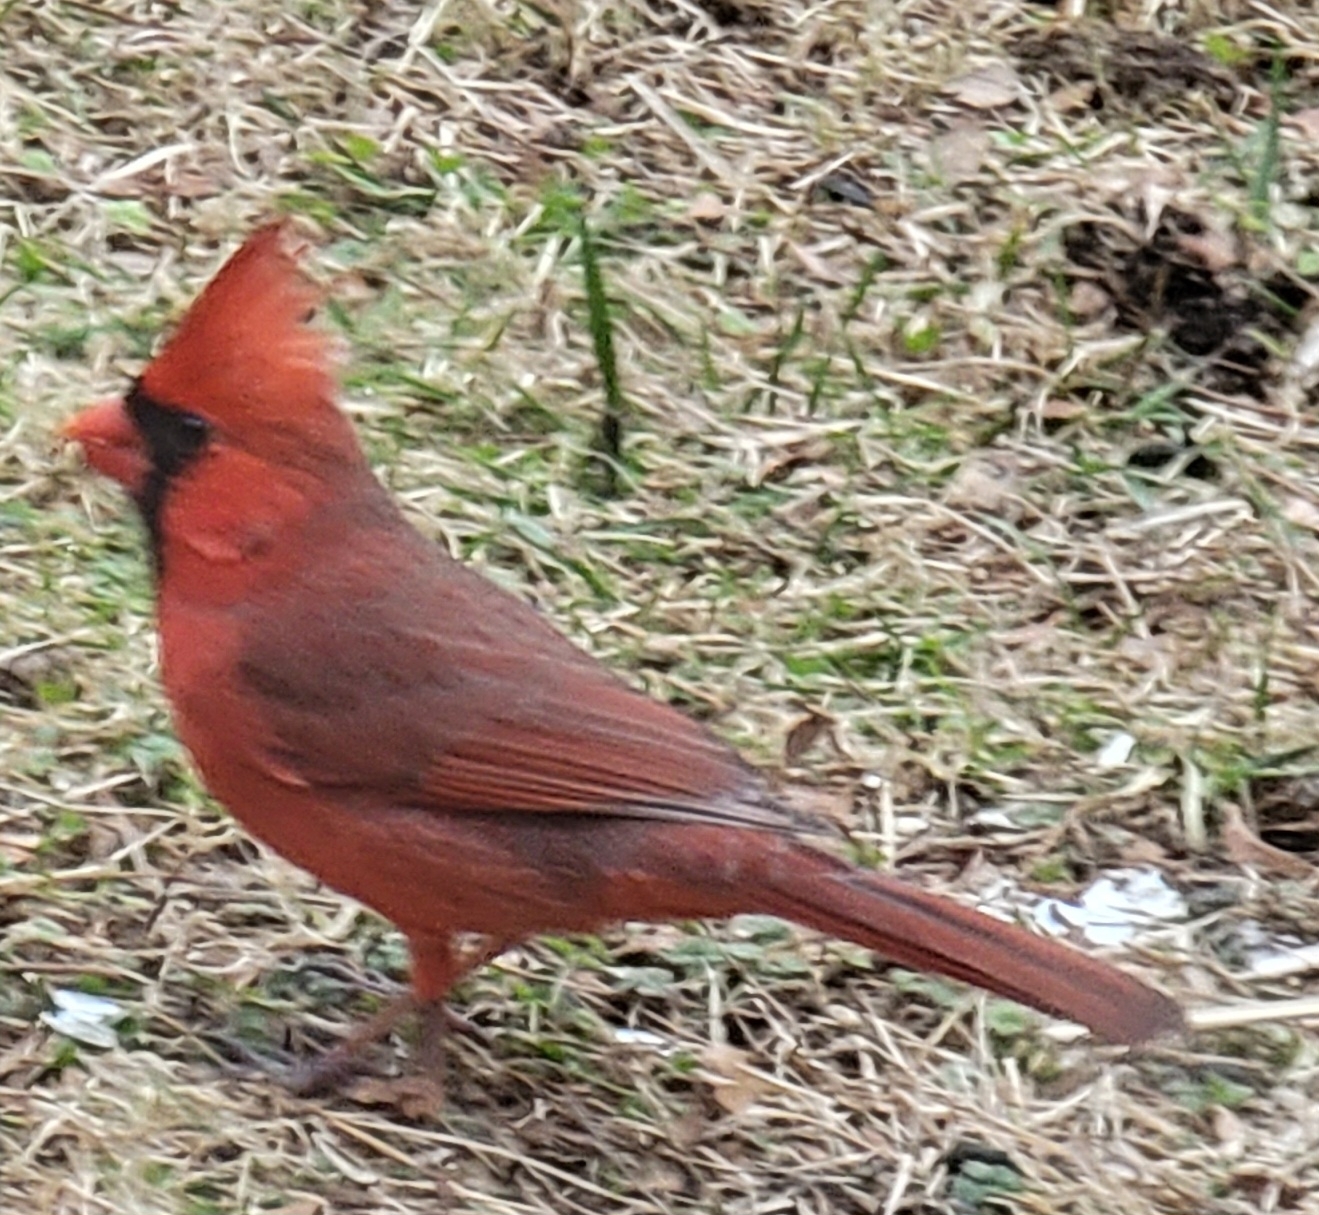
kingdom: Animalia
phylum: Chordata
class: Aves
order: Passeriformes
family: Cardinalidae
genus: Cardinalis
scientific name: Cardinalis cardinalis
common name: Northern cardinal
